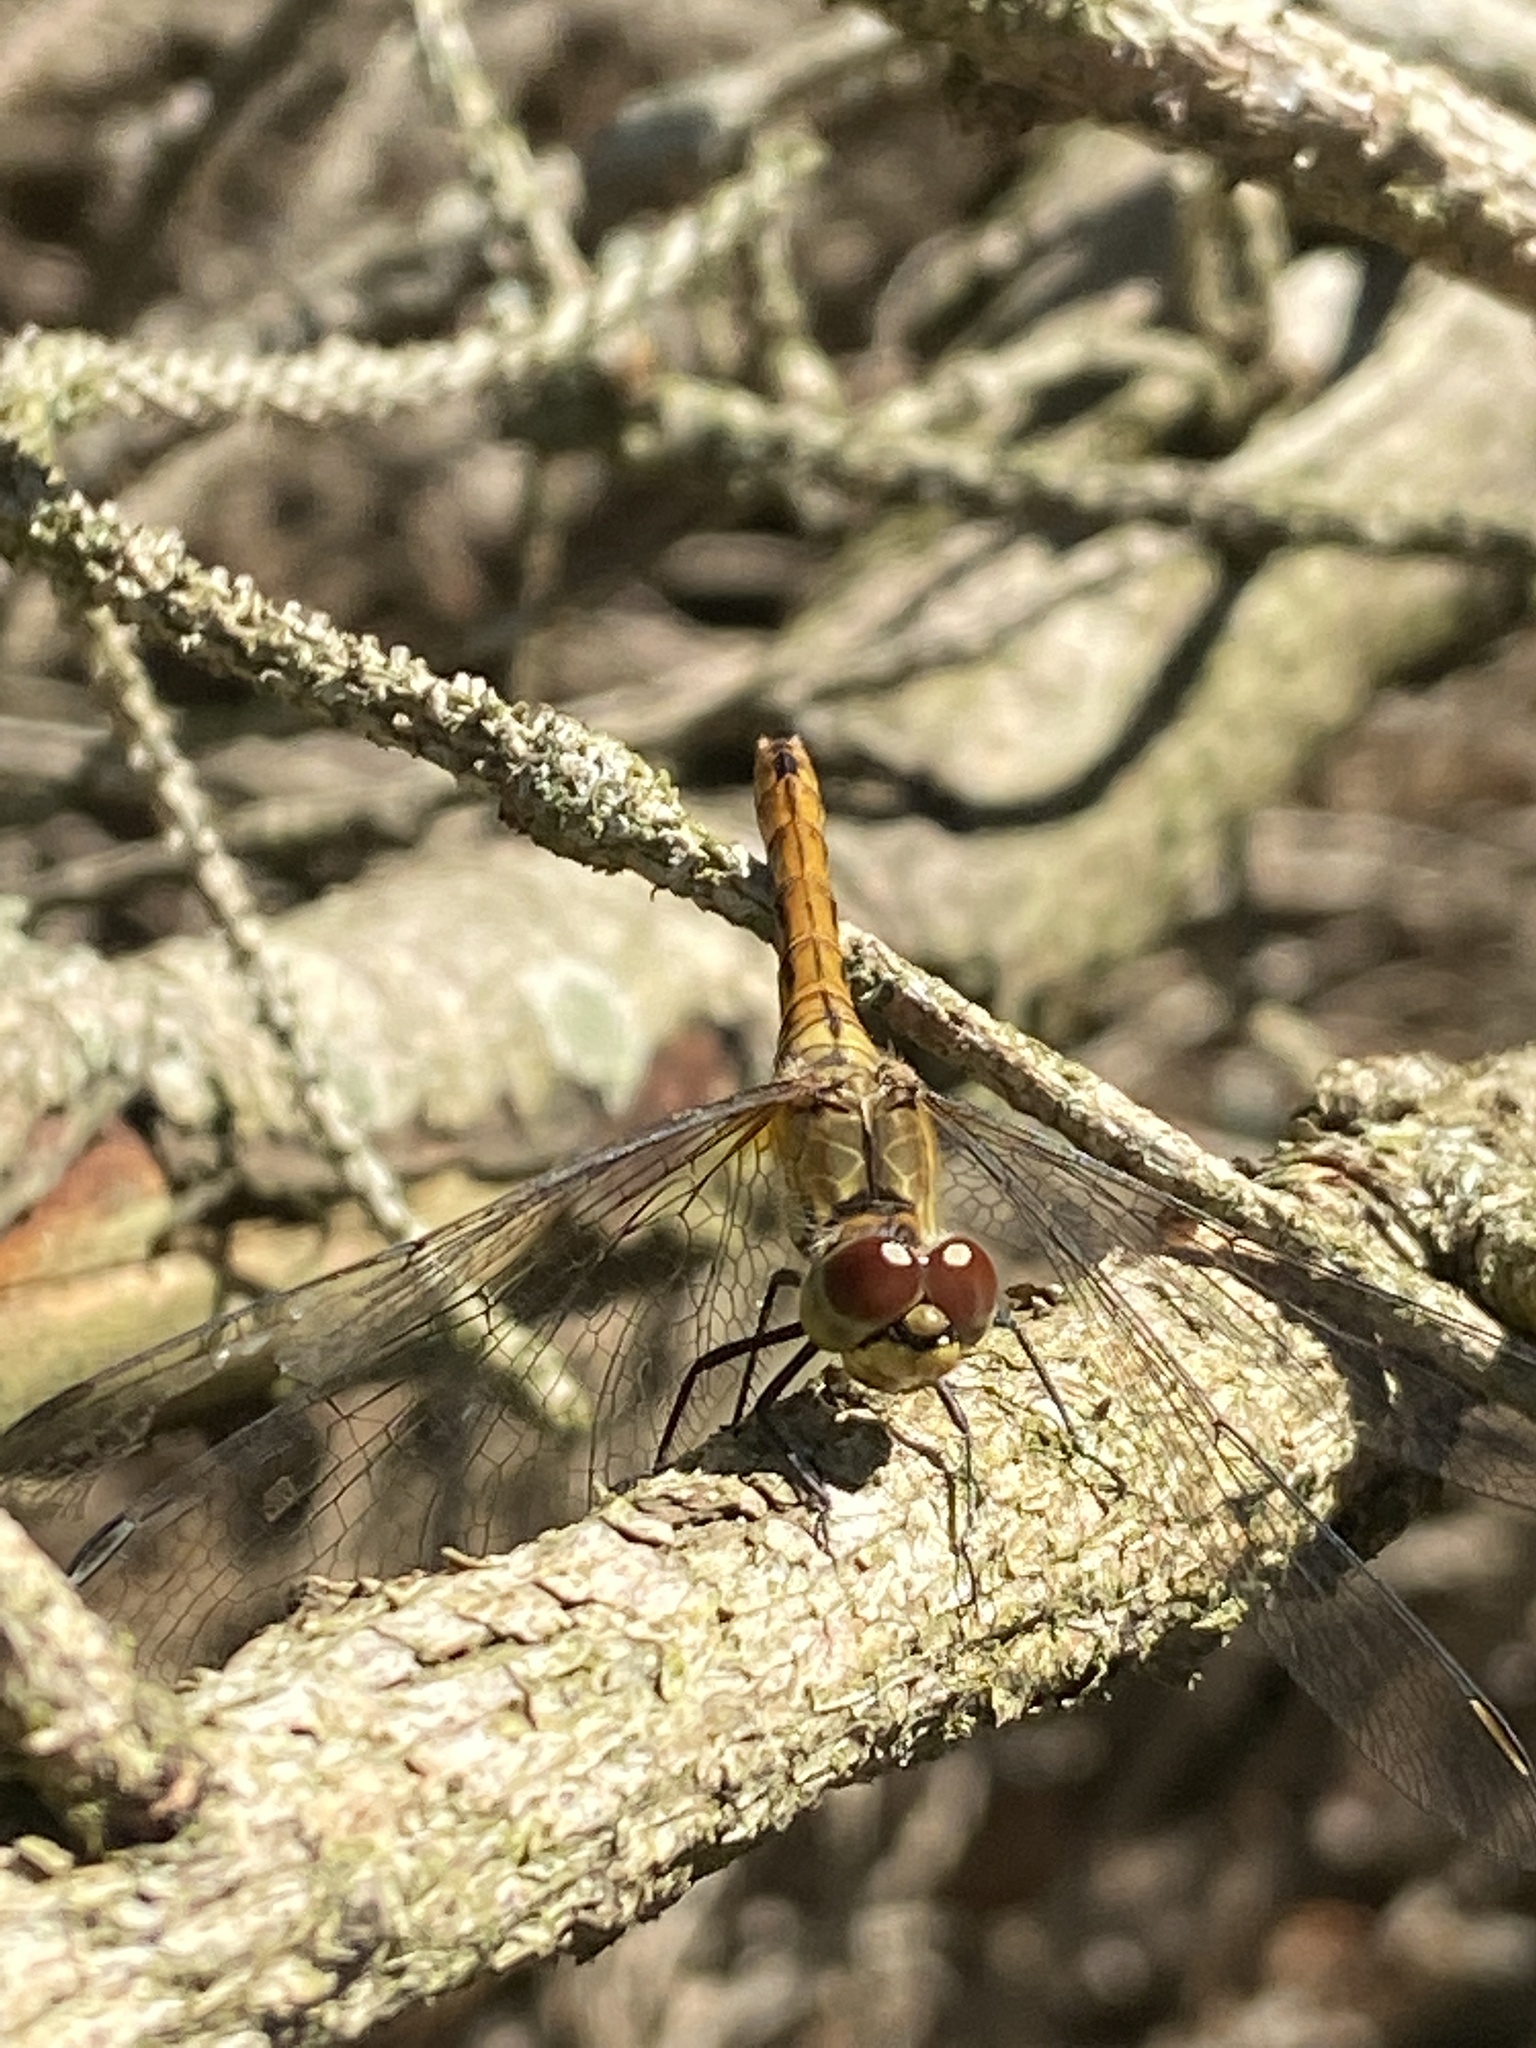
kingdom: Animalia
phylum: Arthropoda
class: Insecta
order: Odonata
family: Libellulidae
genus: Sympetrum
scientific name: Sympetrum sanguineum
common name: Ruddy darter
